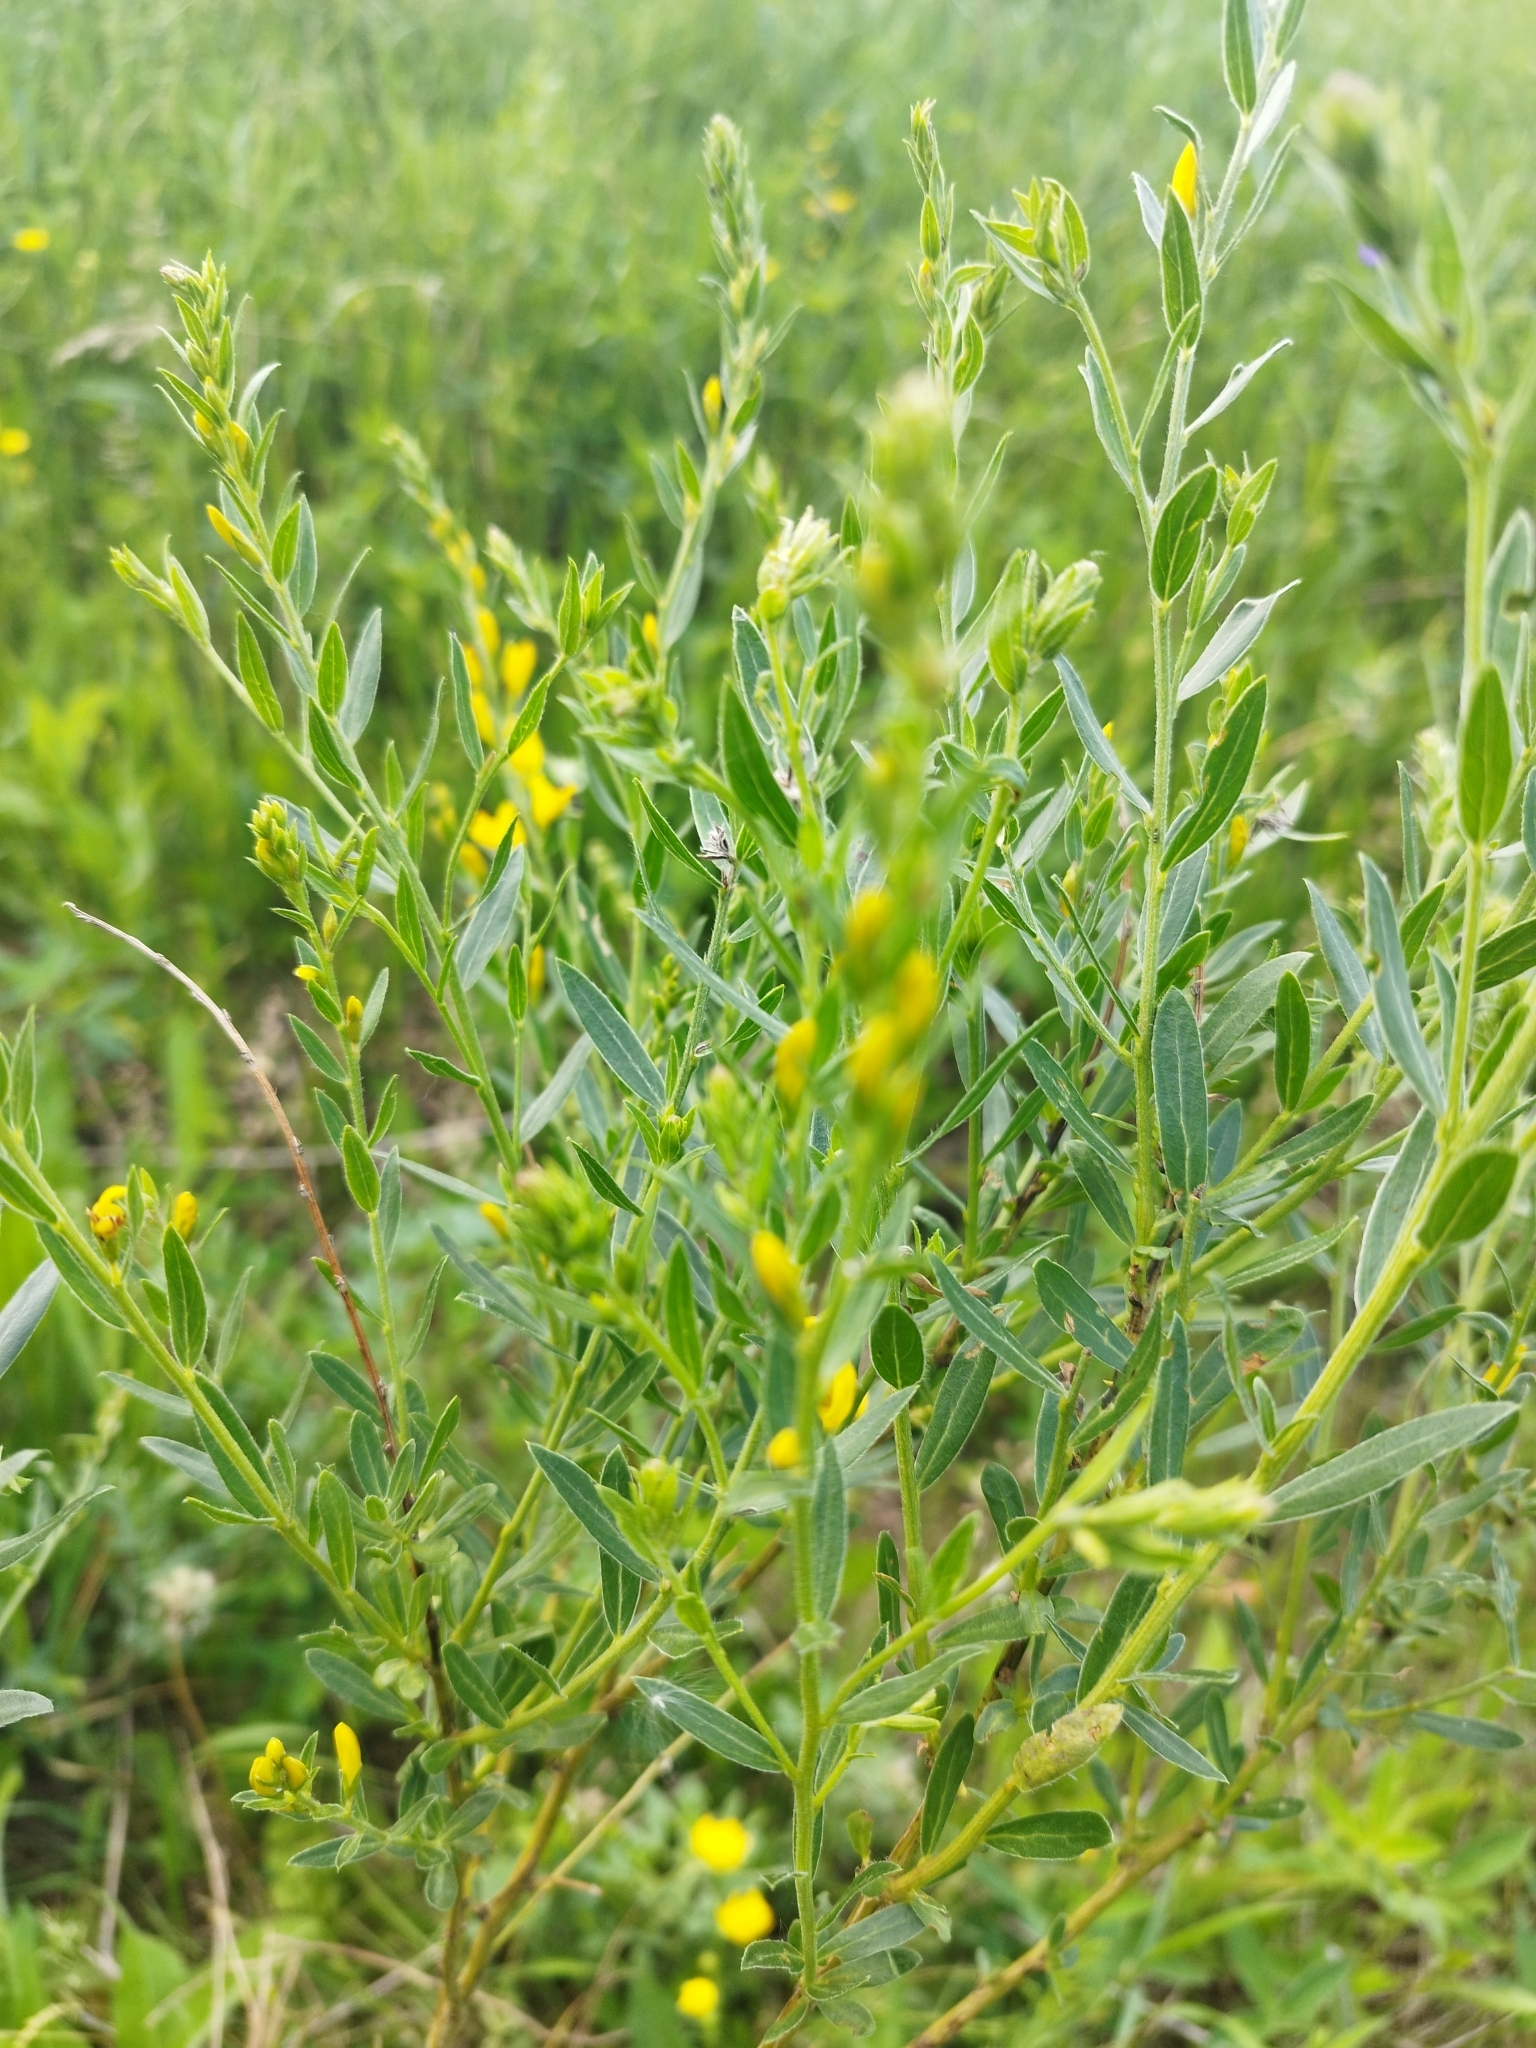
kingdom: Plantae
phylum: Tracheophyta
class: Magnoliopsida
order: Fabales
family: Fabaceae
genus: Genista
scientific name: Genista tinctoria
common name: Dyer's greenweed
